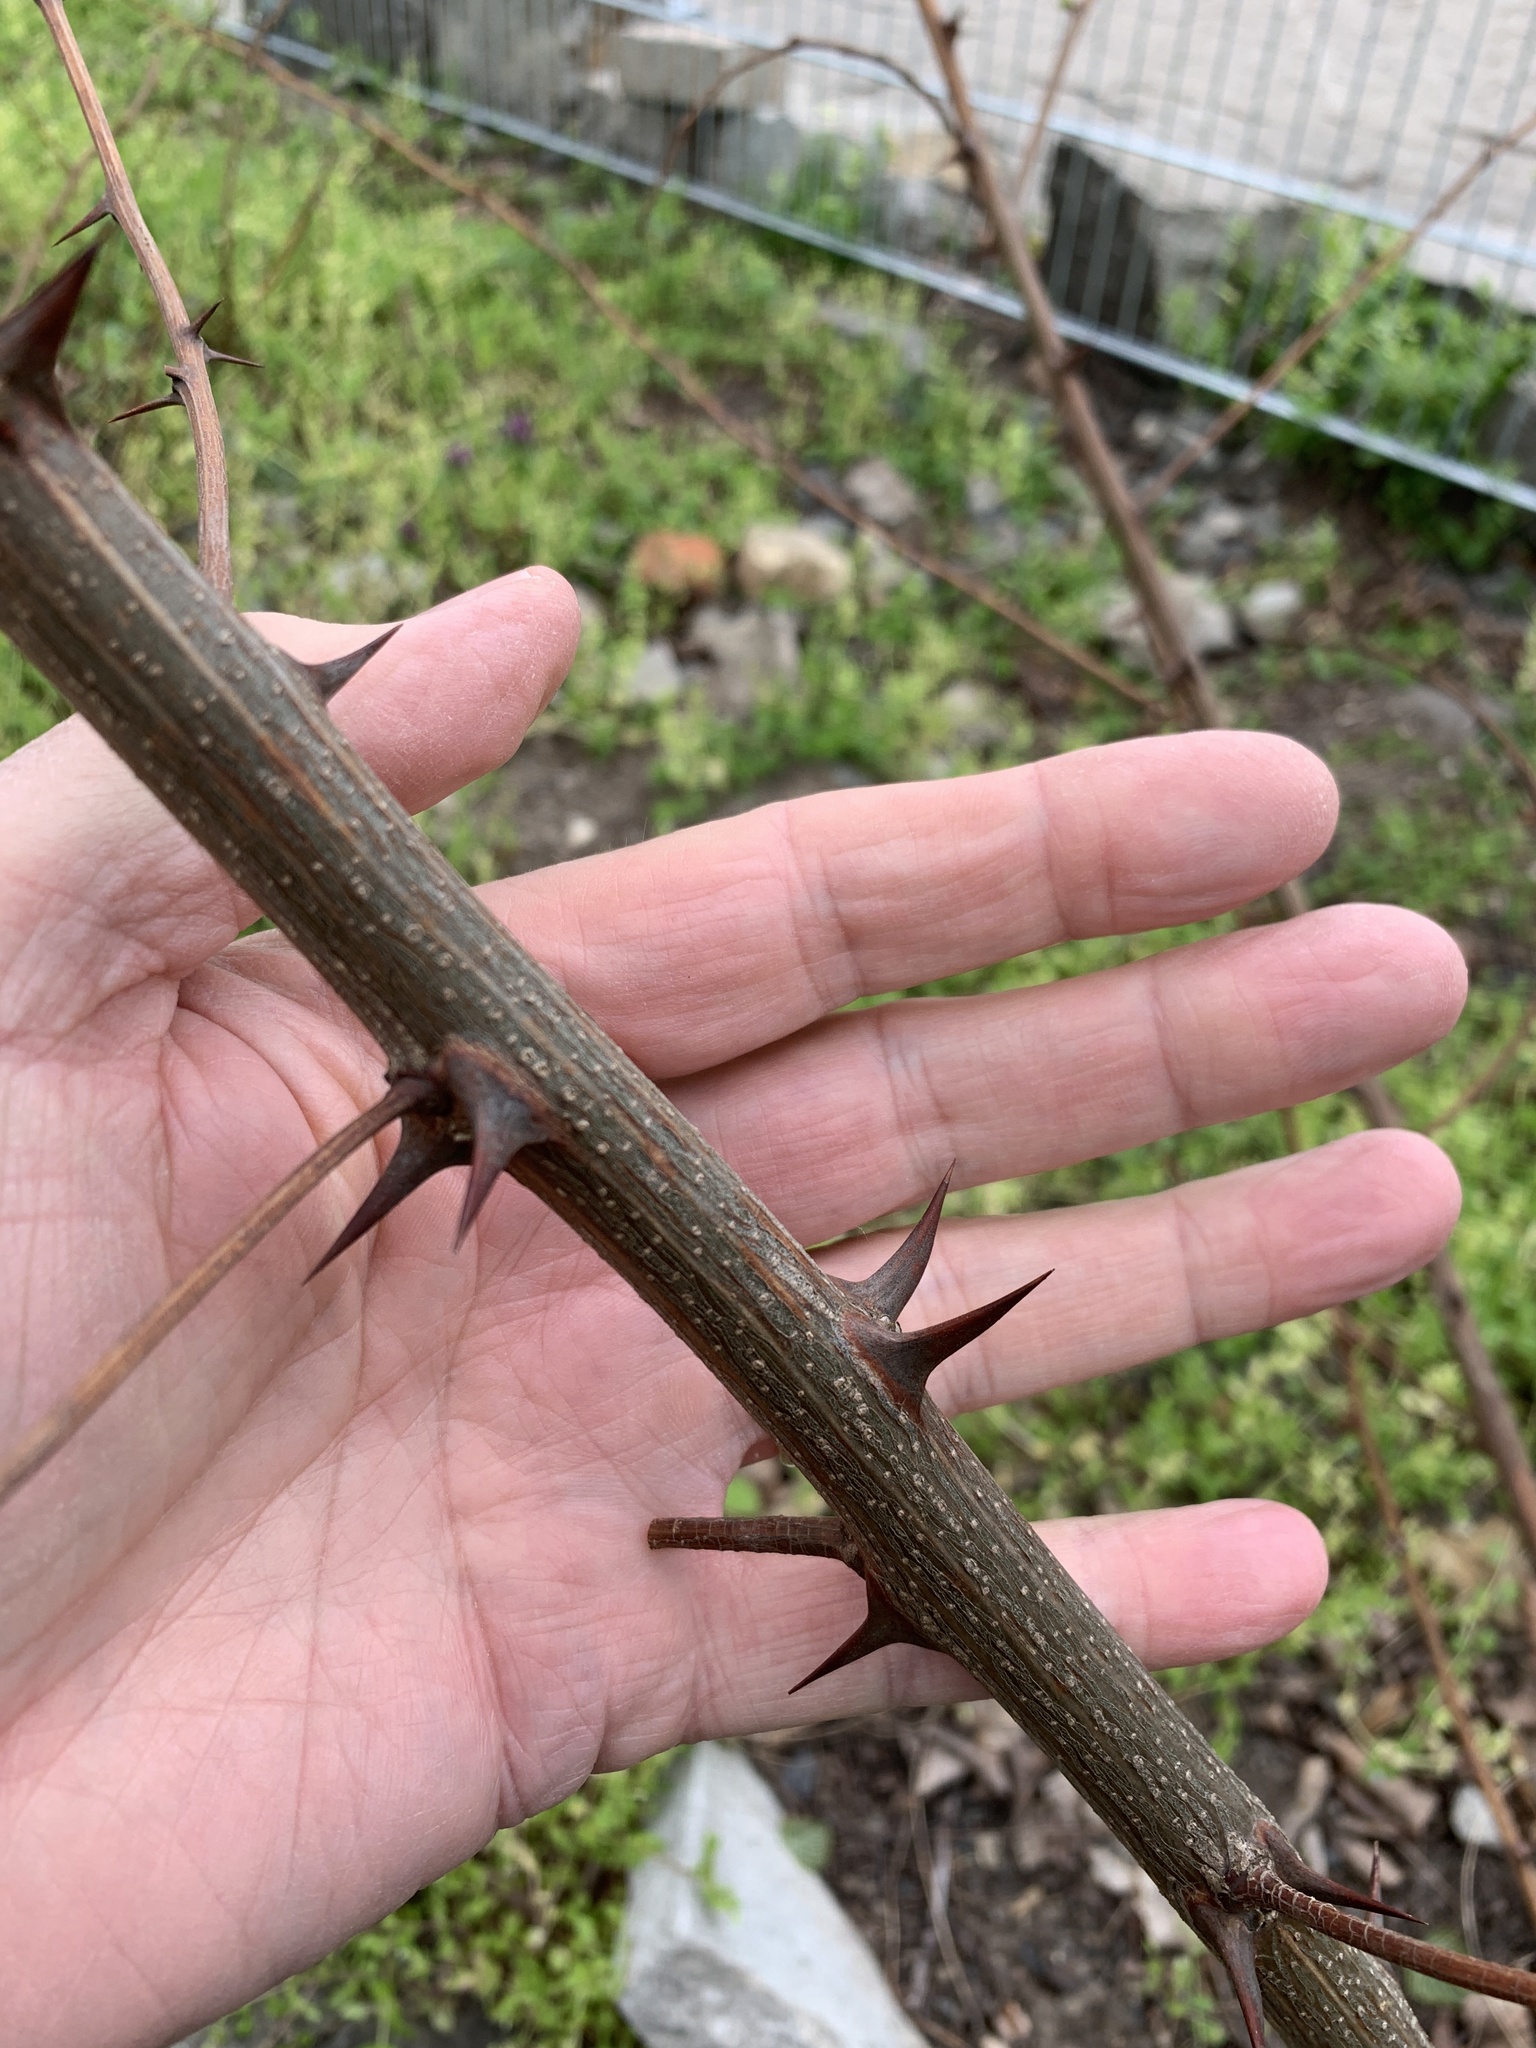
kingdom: Plantae
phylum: Tracheophyta
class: Magnoliopsida
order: Fabales
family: Fabaceae
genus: Robinia
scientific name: Robinia pseudoacacia
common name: Black locust
